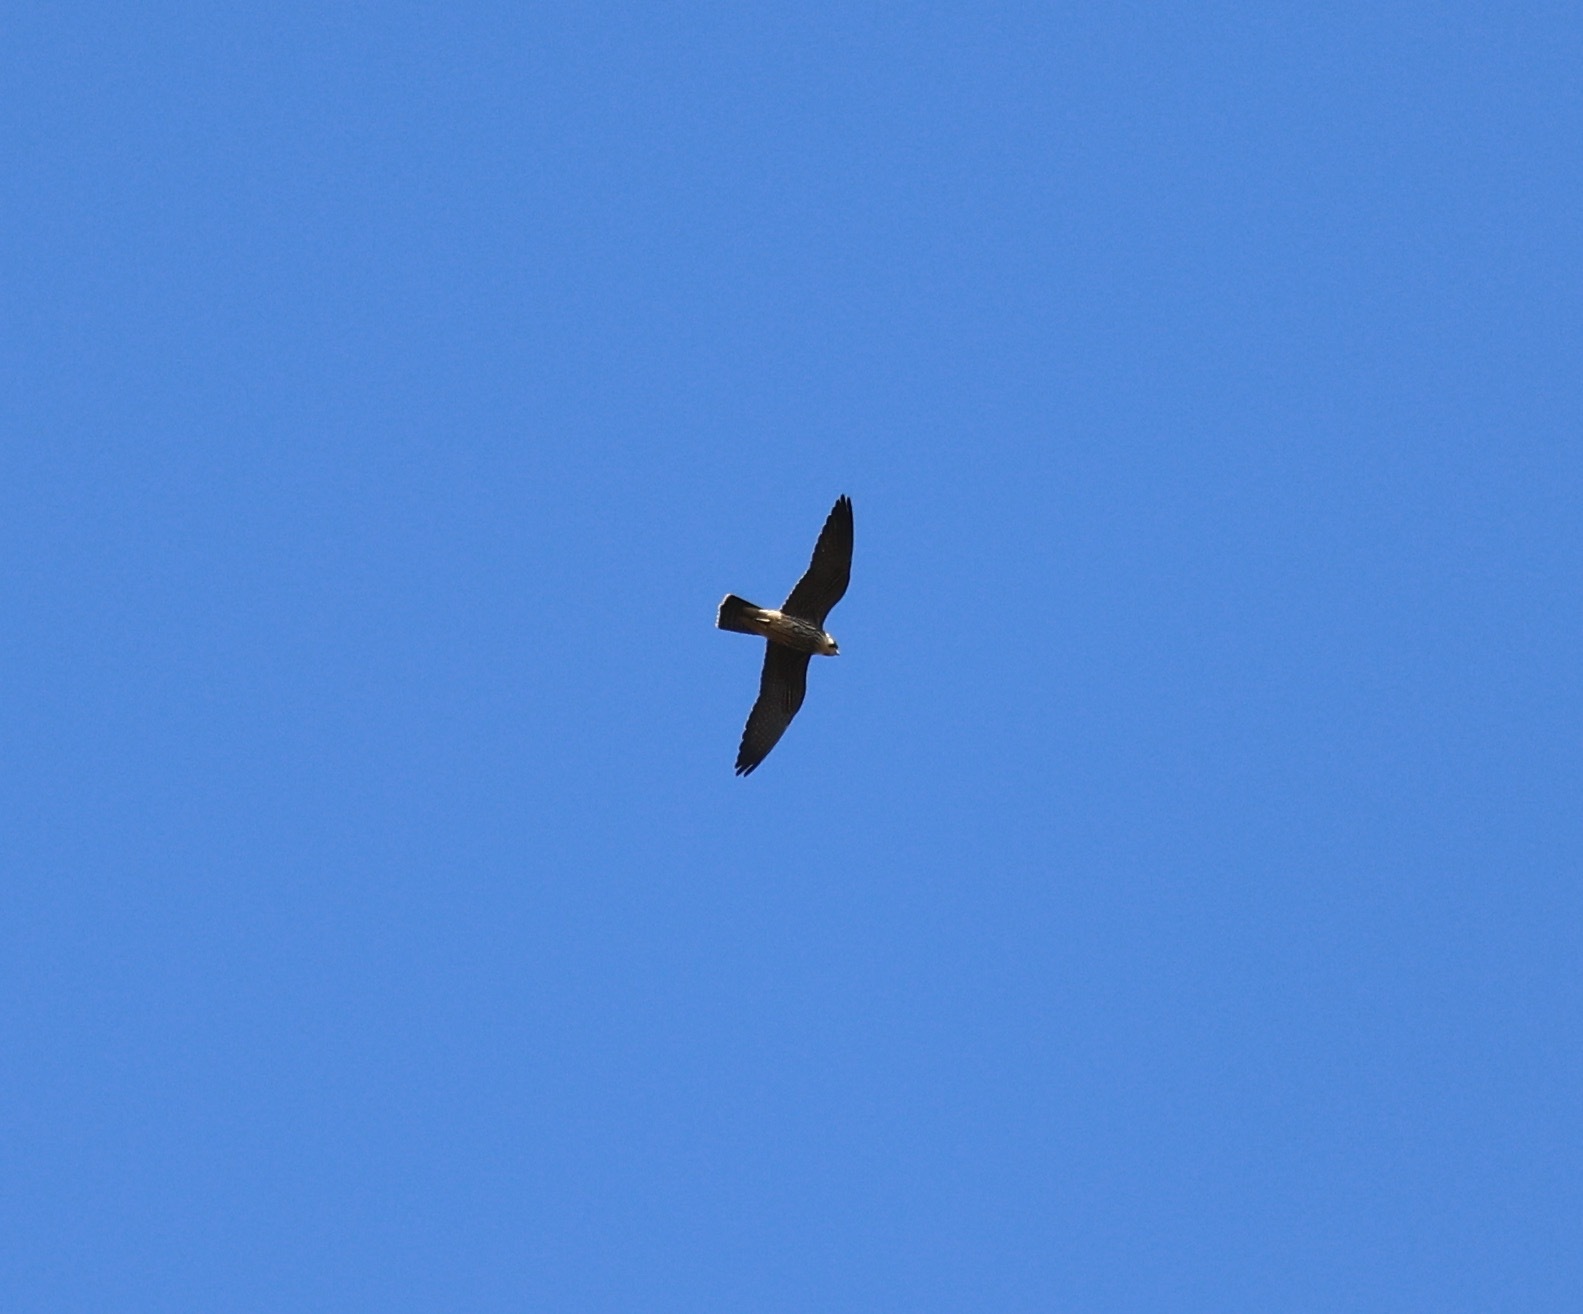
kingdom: Animalia
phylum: Chordata
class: Aves
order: Falconiformes
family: Falconidae
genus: Falco
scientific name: Falco subbuteo
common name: Eurasian hobby
